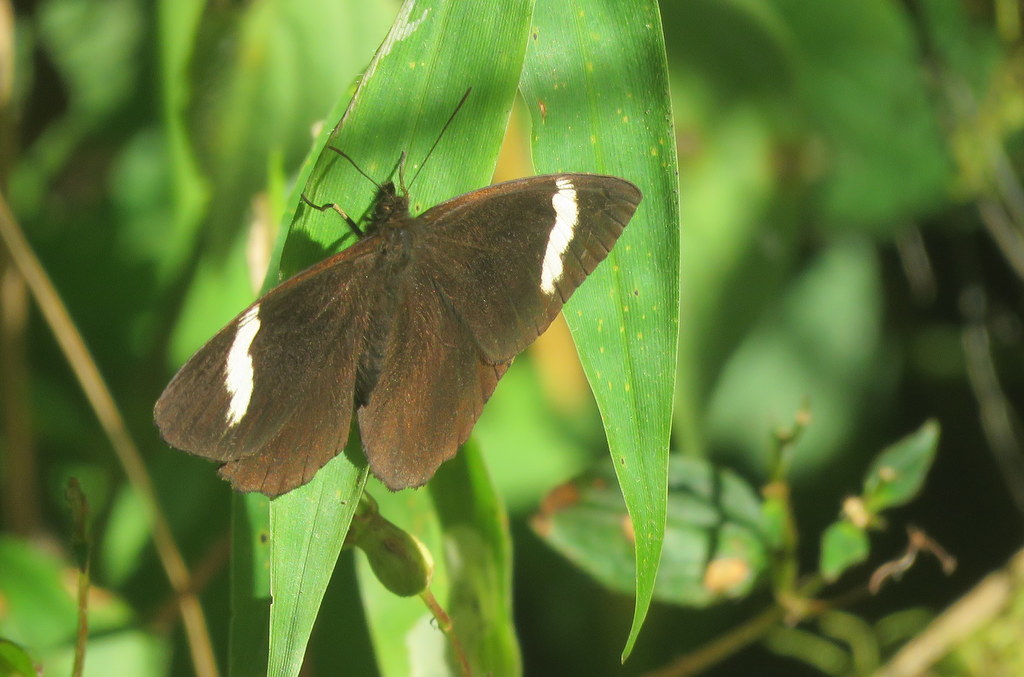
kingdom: Animalia
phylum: Arthropoda
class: Insecta
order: Lepidoptera
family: Nymphalidae
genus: Pedaliodes
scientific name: Pedaliodes porina
